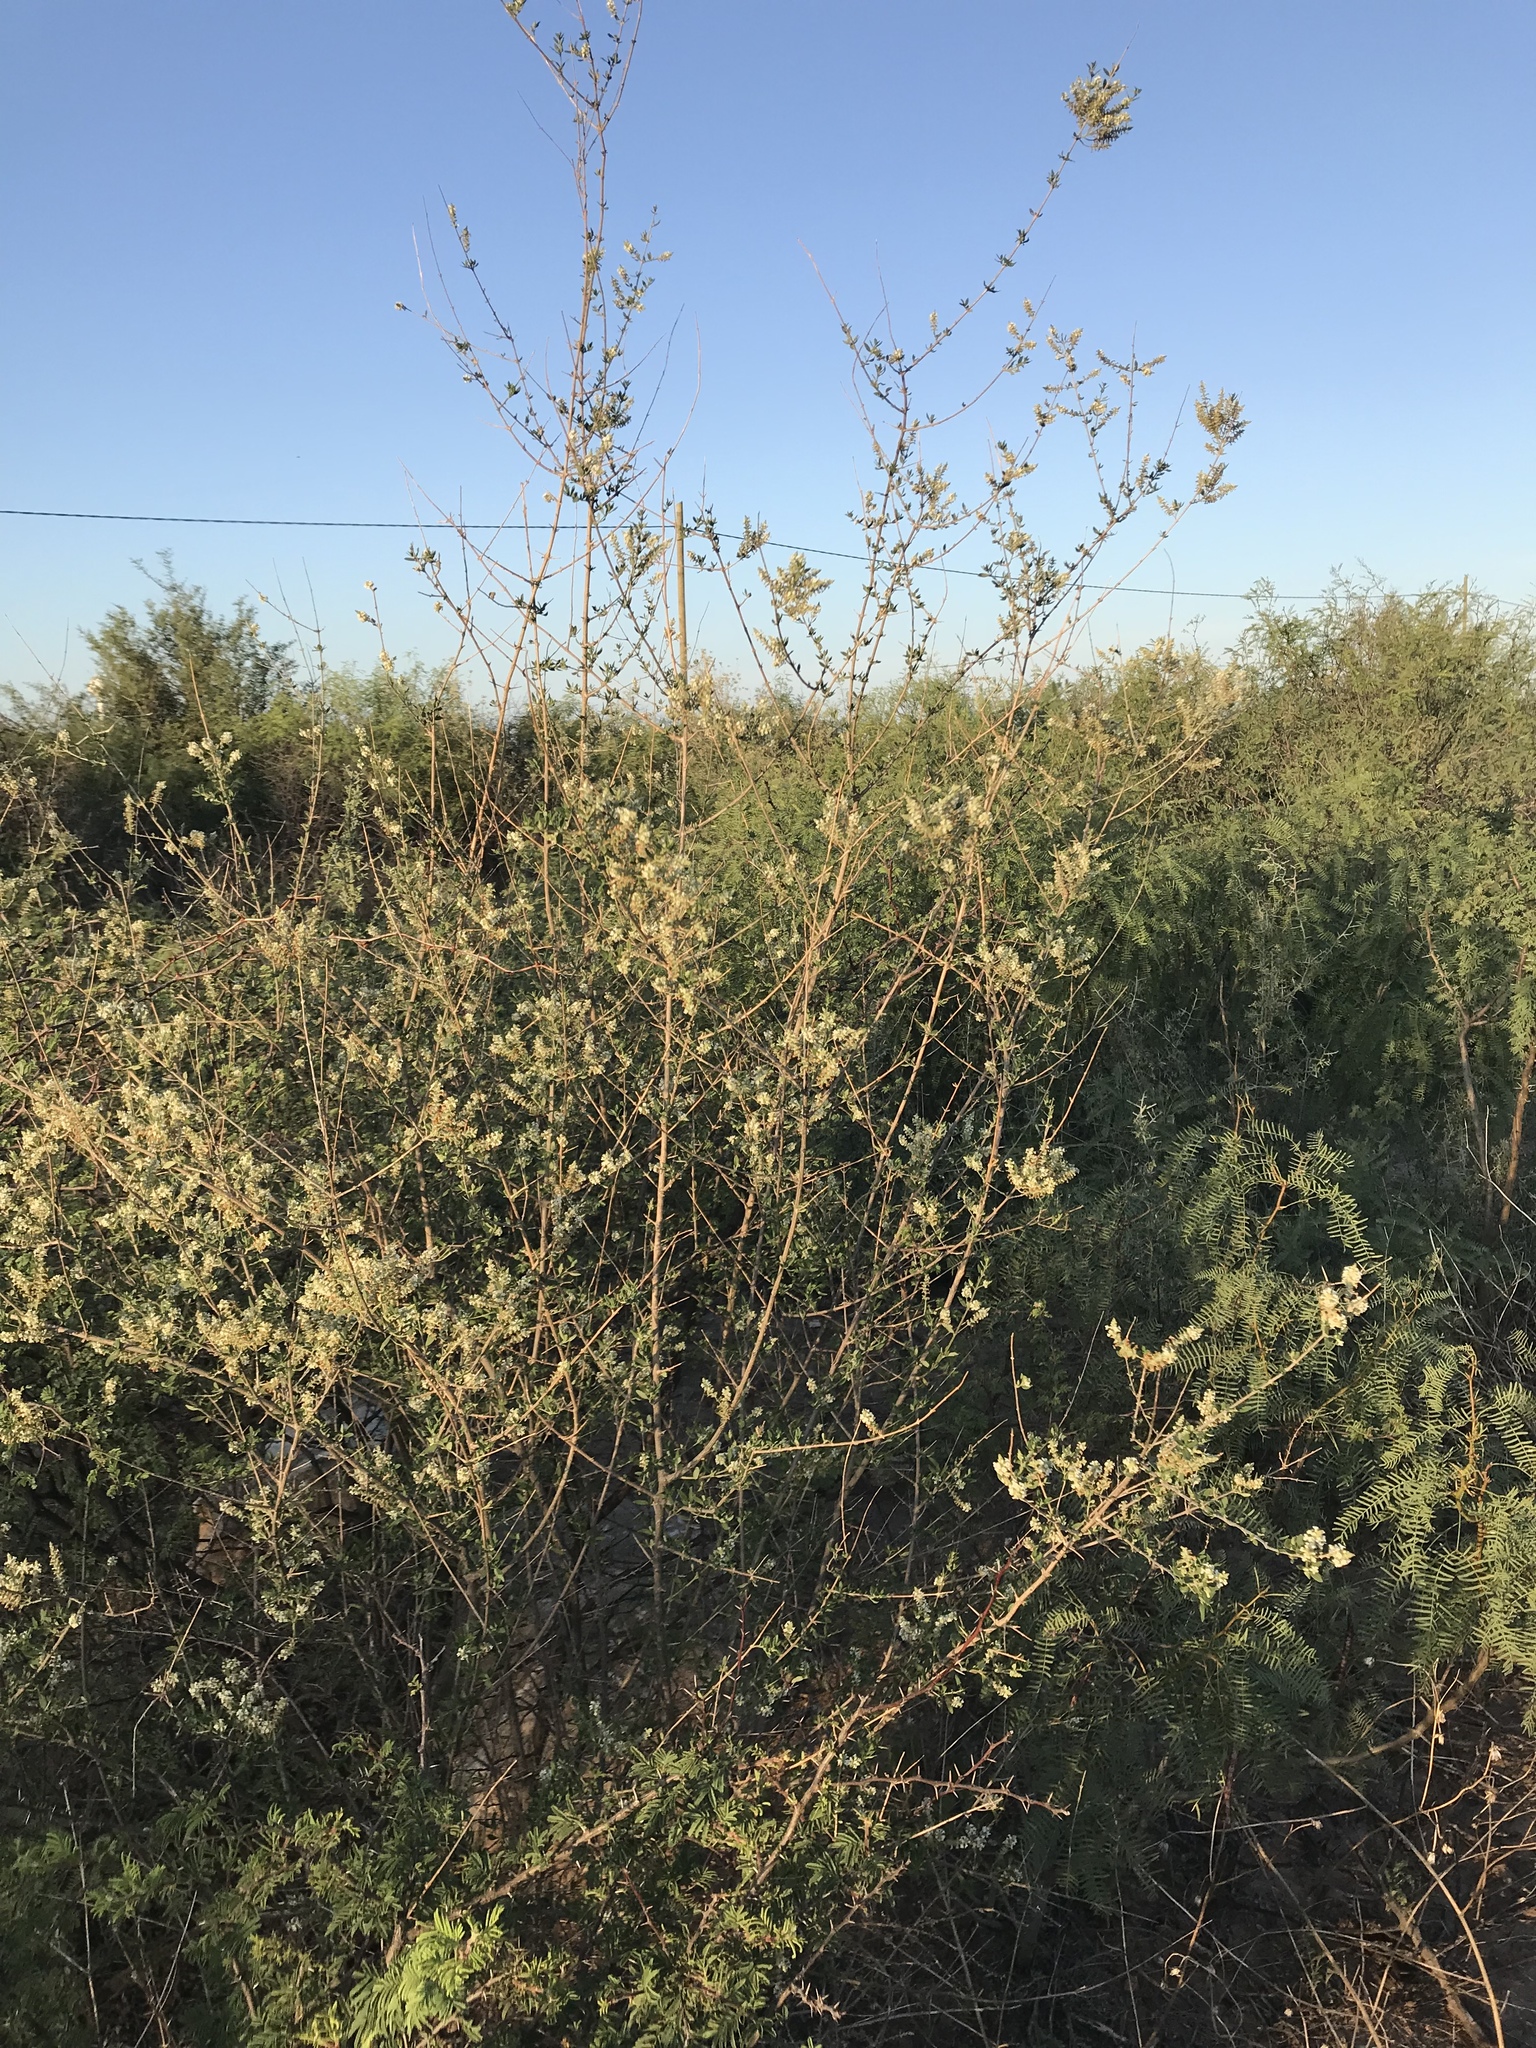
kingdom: Plantae
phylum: Tracheophyta
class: Magnoliopsida
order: Lamiales
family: Verbenaceae
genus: Aloysia
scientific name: Aloysia gratissima
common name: Common bee-brush
